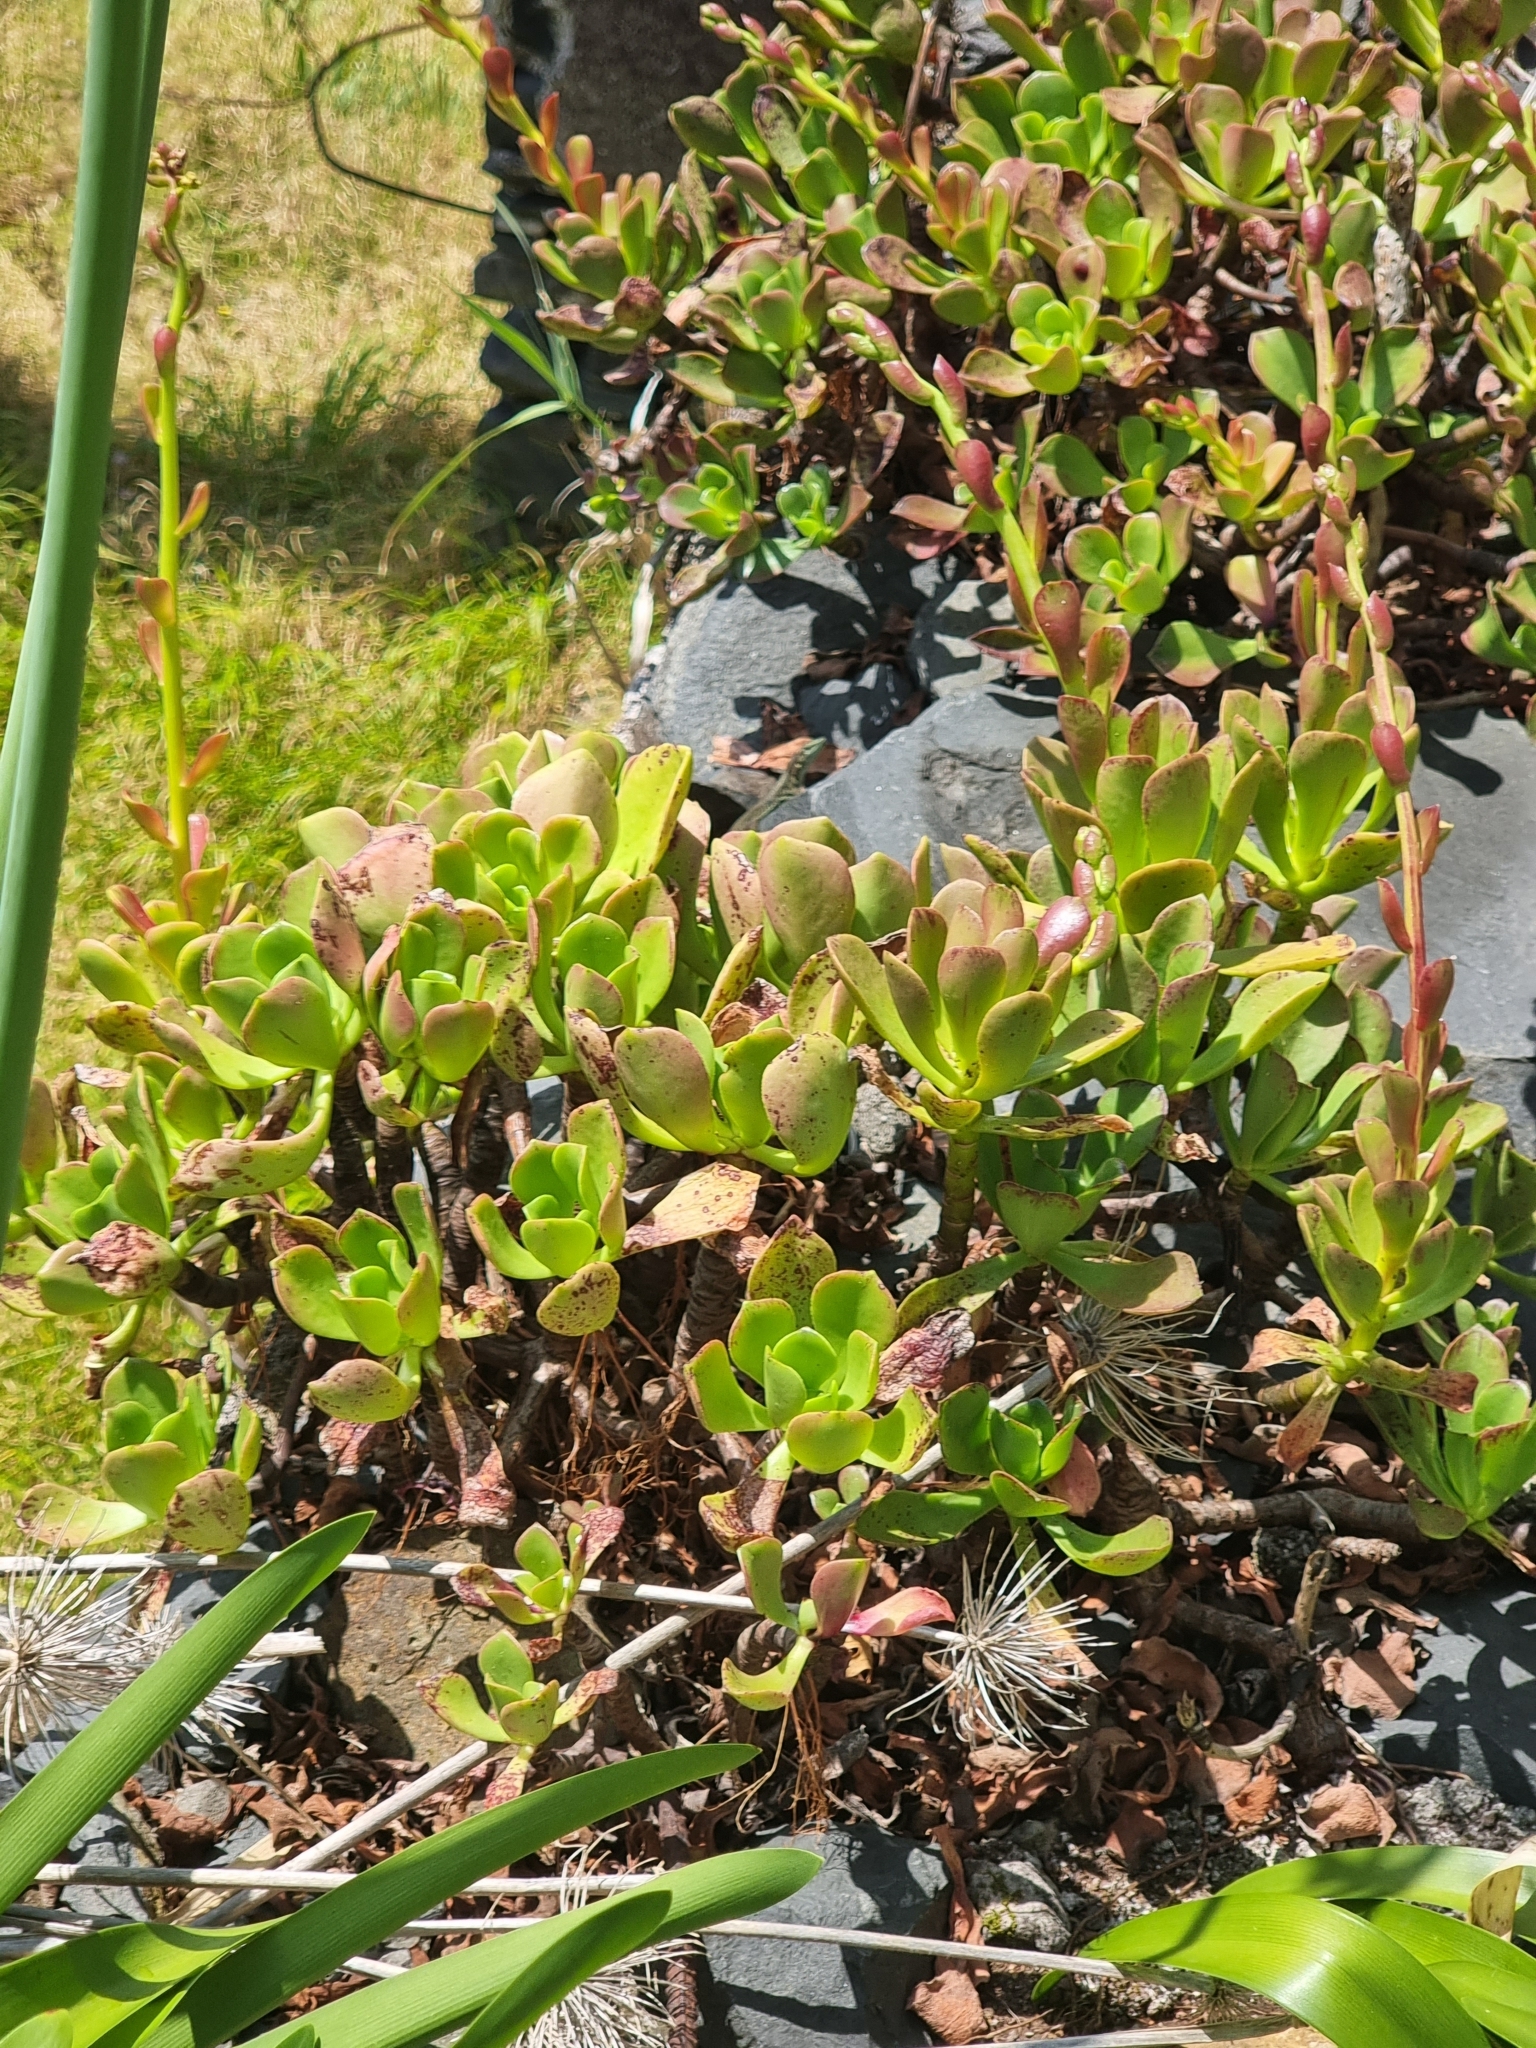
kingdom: Plantae
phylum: Tracheophyta
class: Magnoliopsida
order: Saxifragales
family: Crassulaceae
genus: Aeonium
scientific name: Aeonium glutinosum
